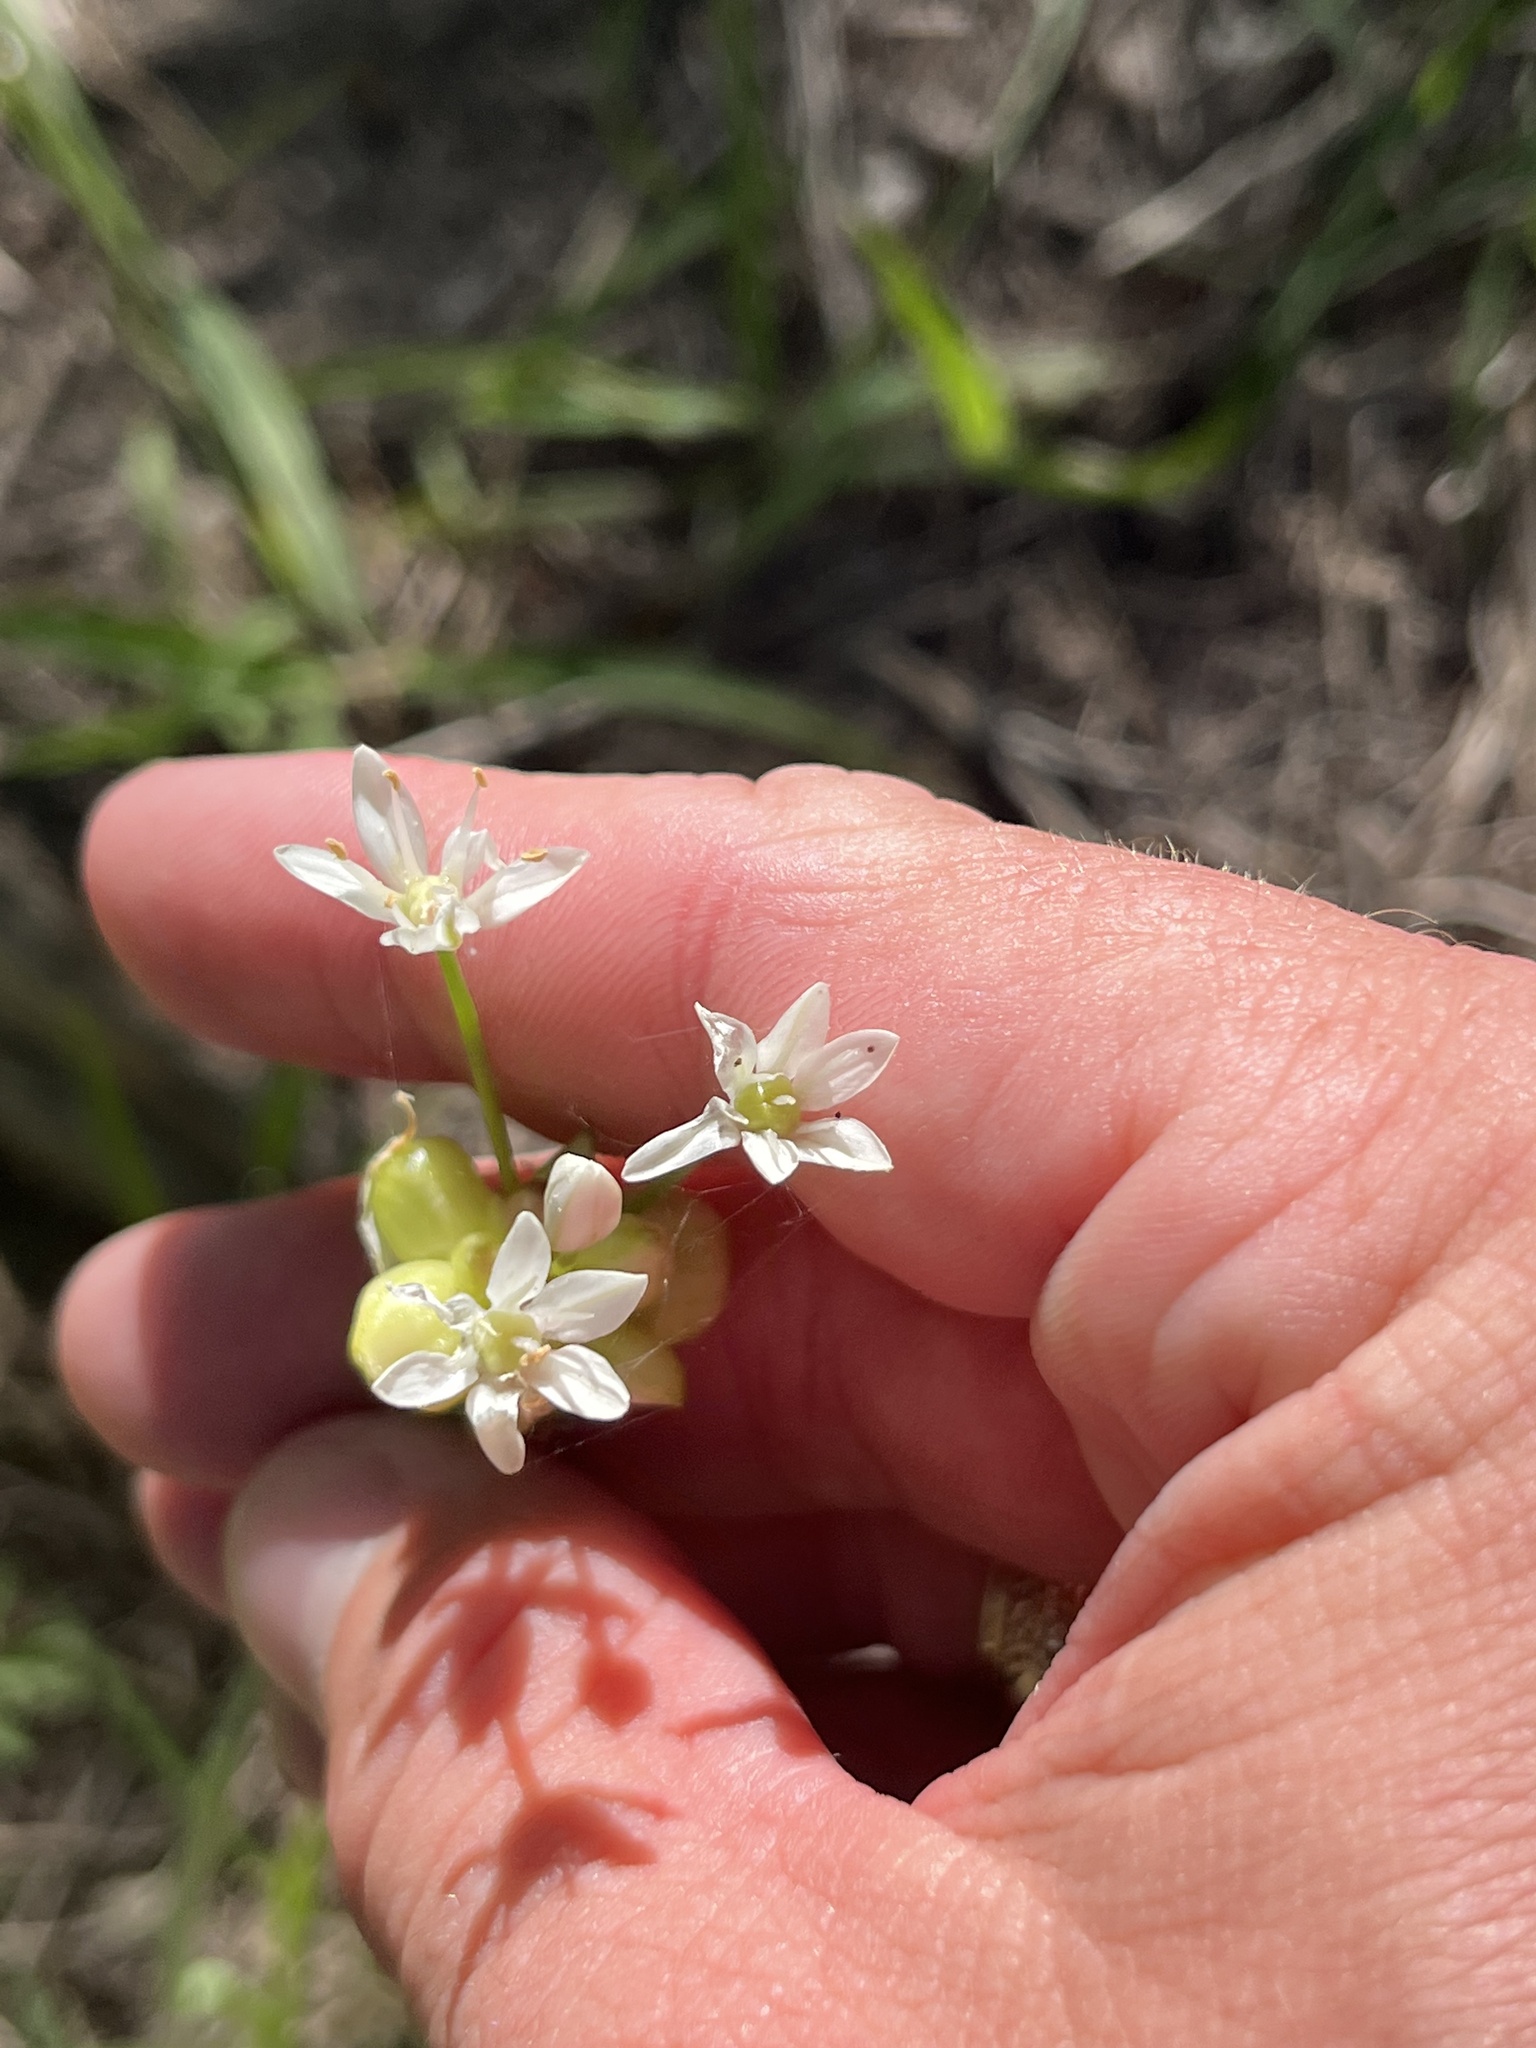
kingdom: Plantae
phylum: Tracheophyta
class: Liliopsida
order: Asparagales
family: Amaryllidaceae
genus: Allium
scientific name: Allium canadense
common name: Meadow garlic
